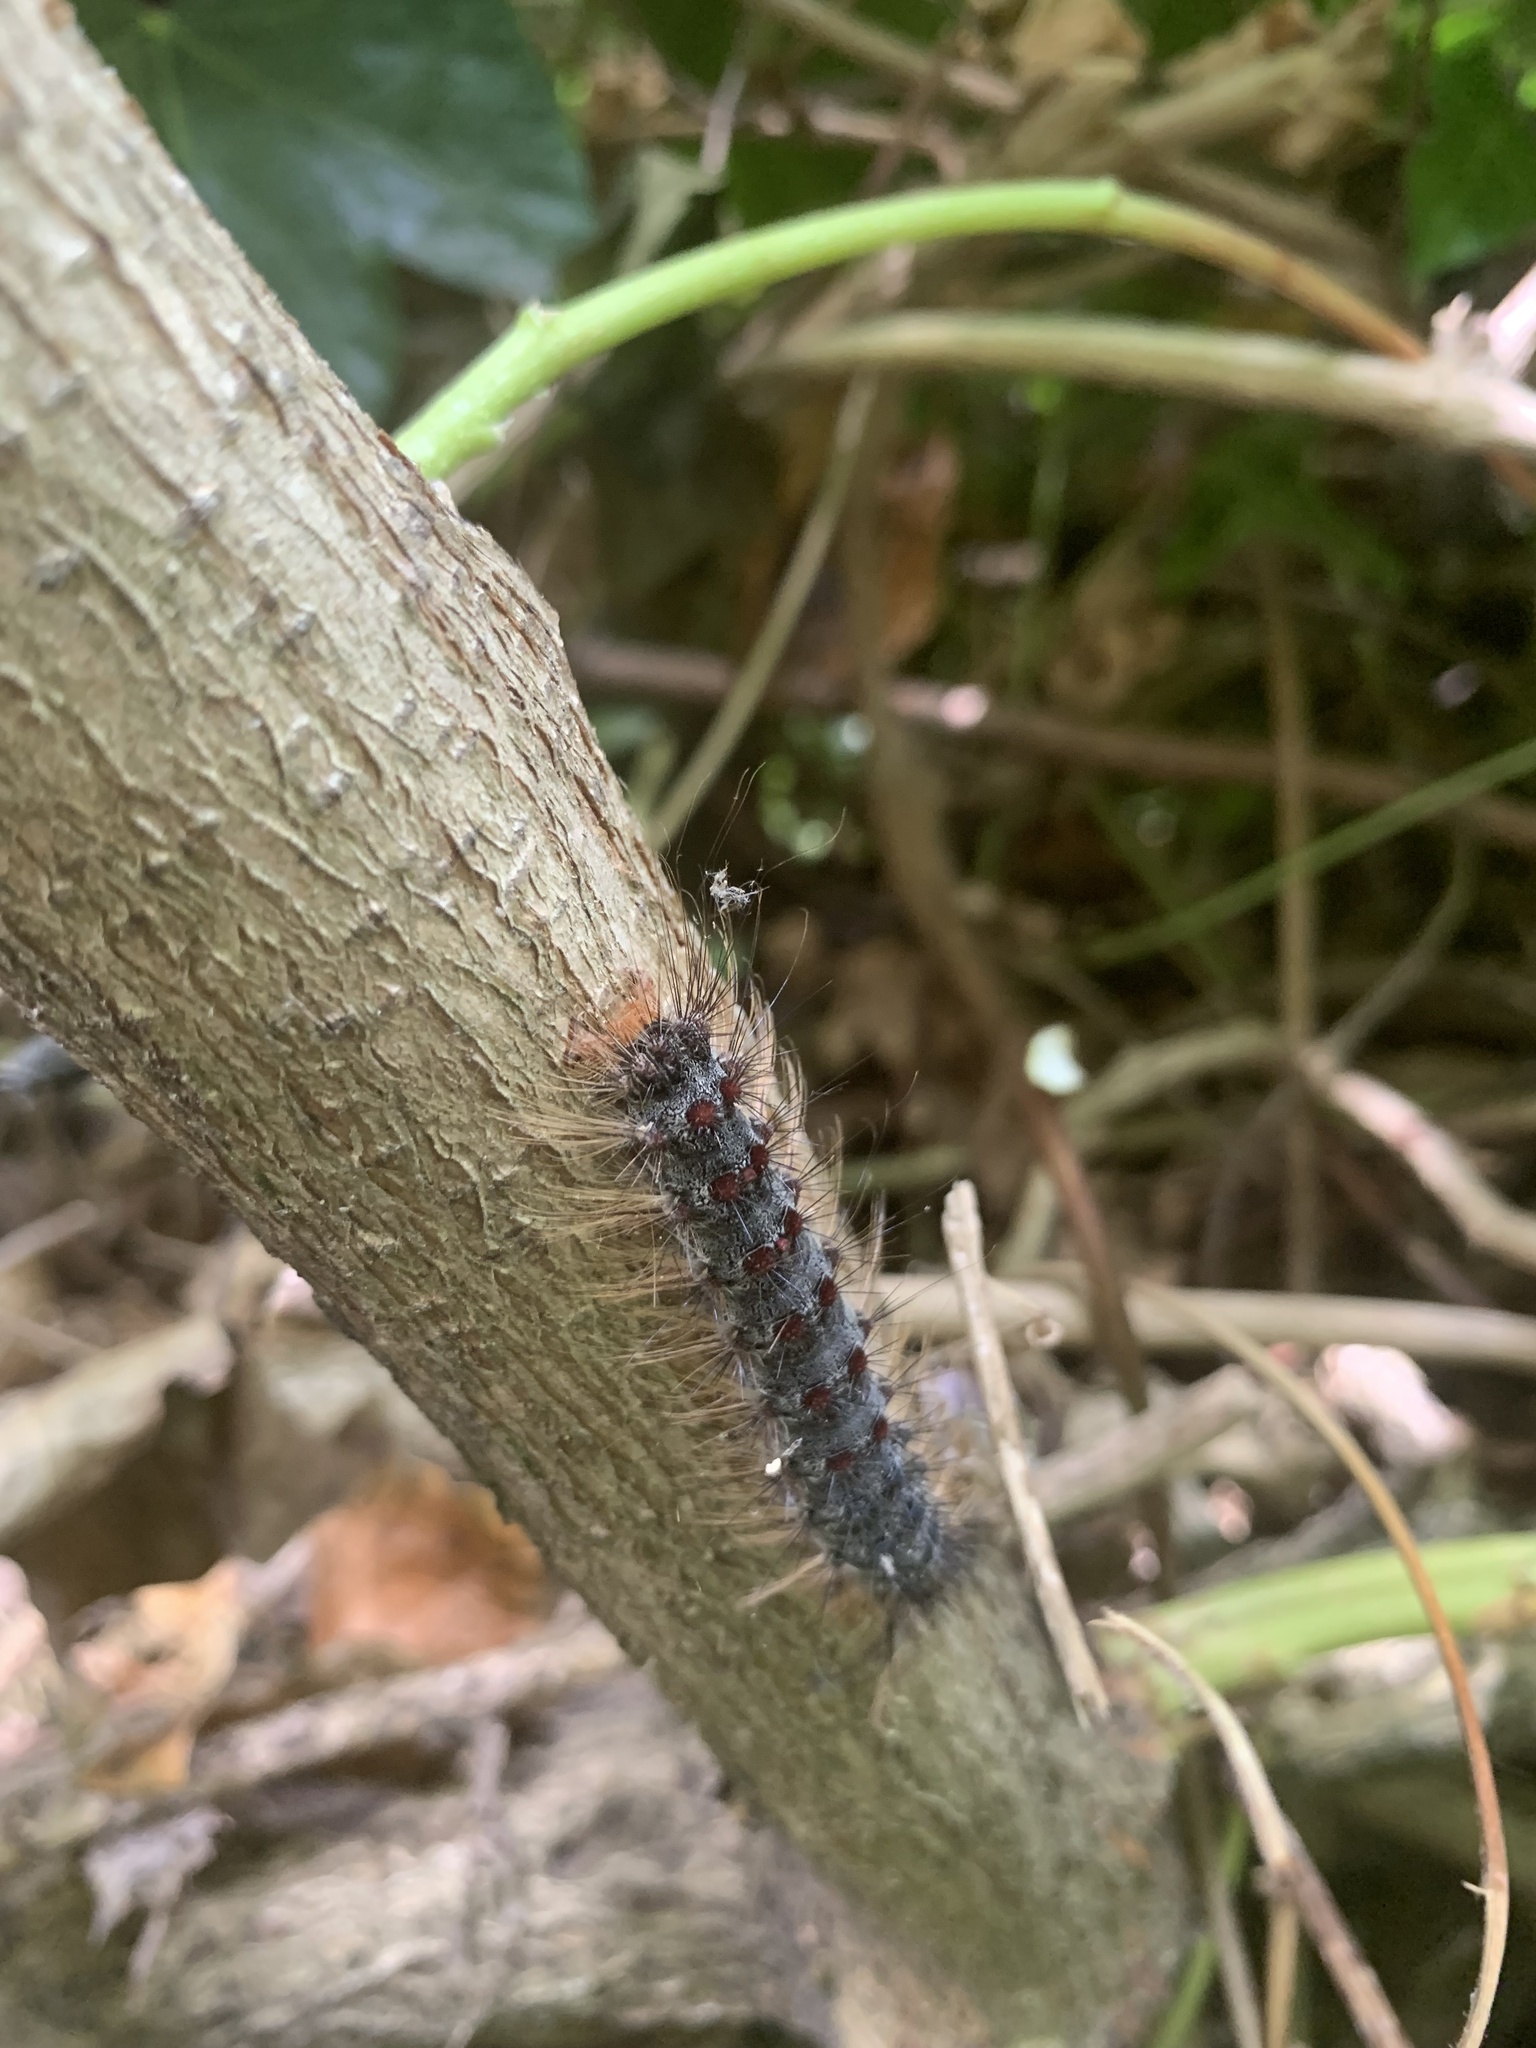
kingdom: Animalia
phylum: Arthropoda
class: Insecta
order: Lepidoptera
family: Erebidae
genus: Lymantria
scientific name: Lymantria dispar
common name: Gypsy moth
